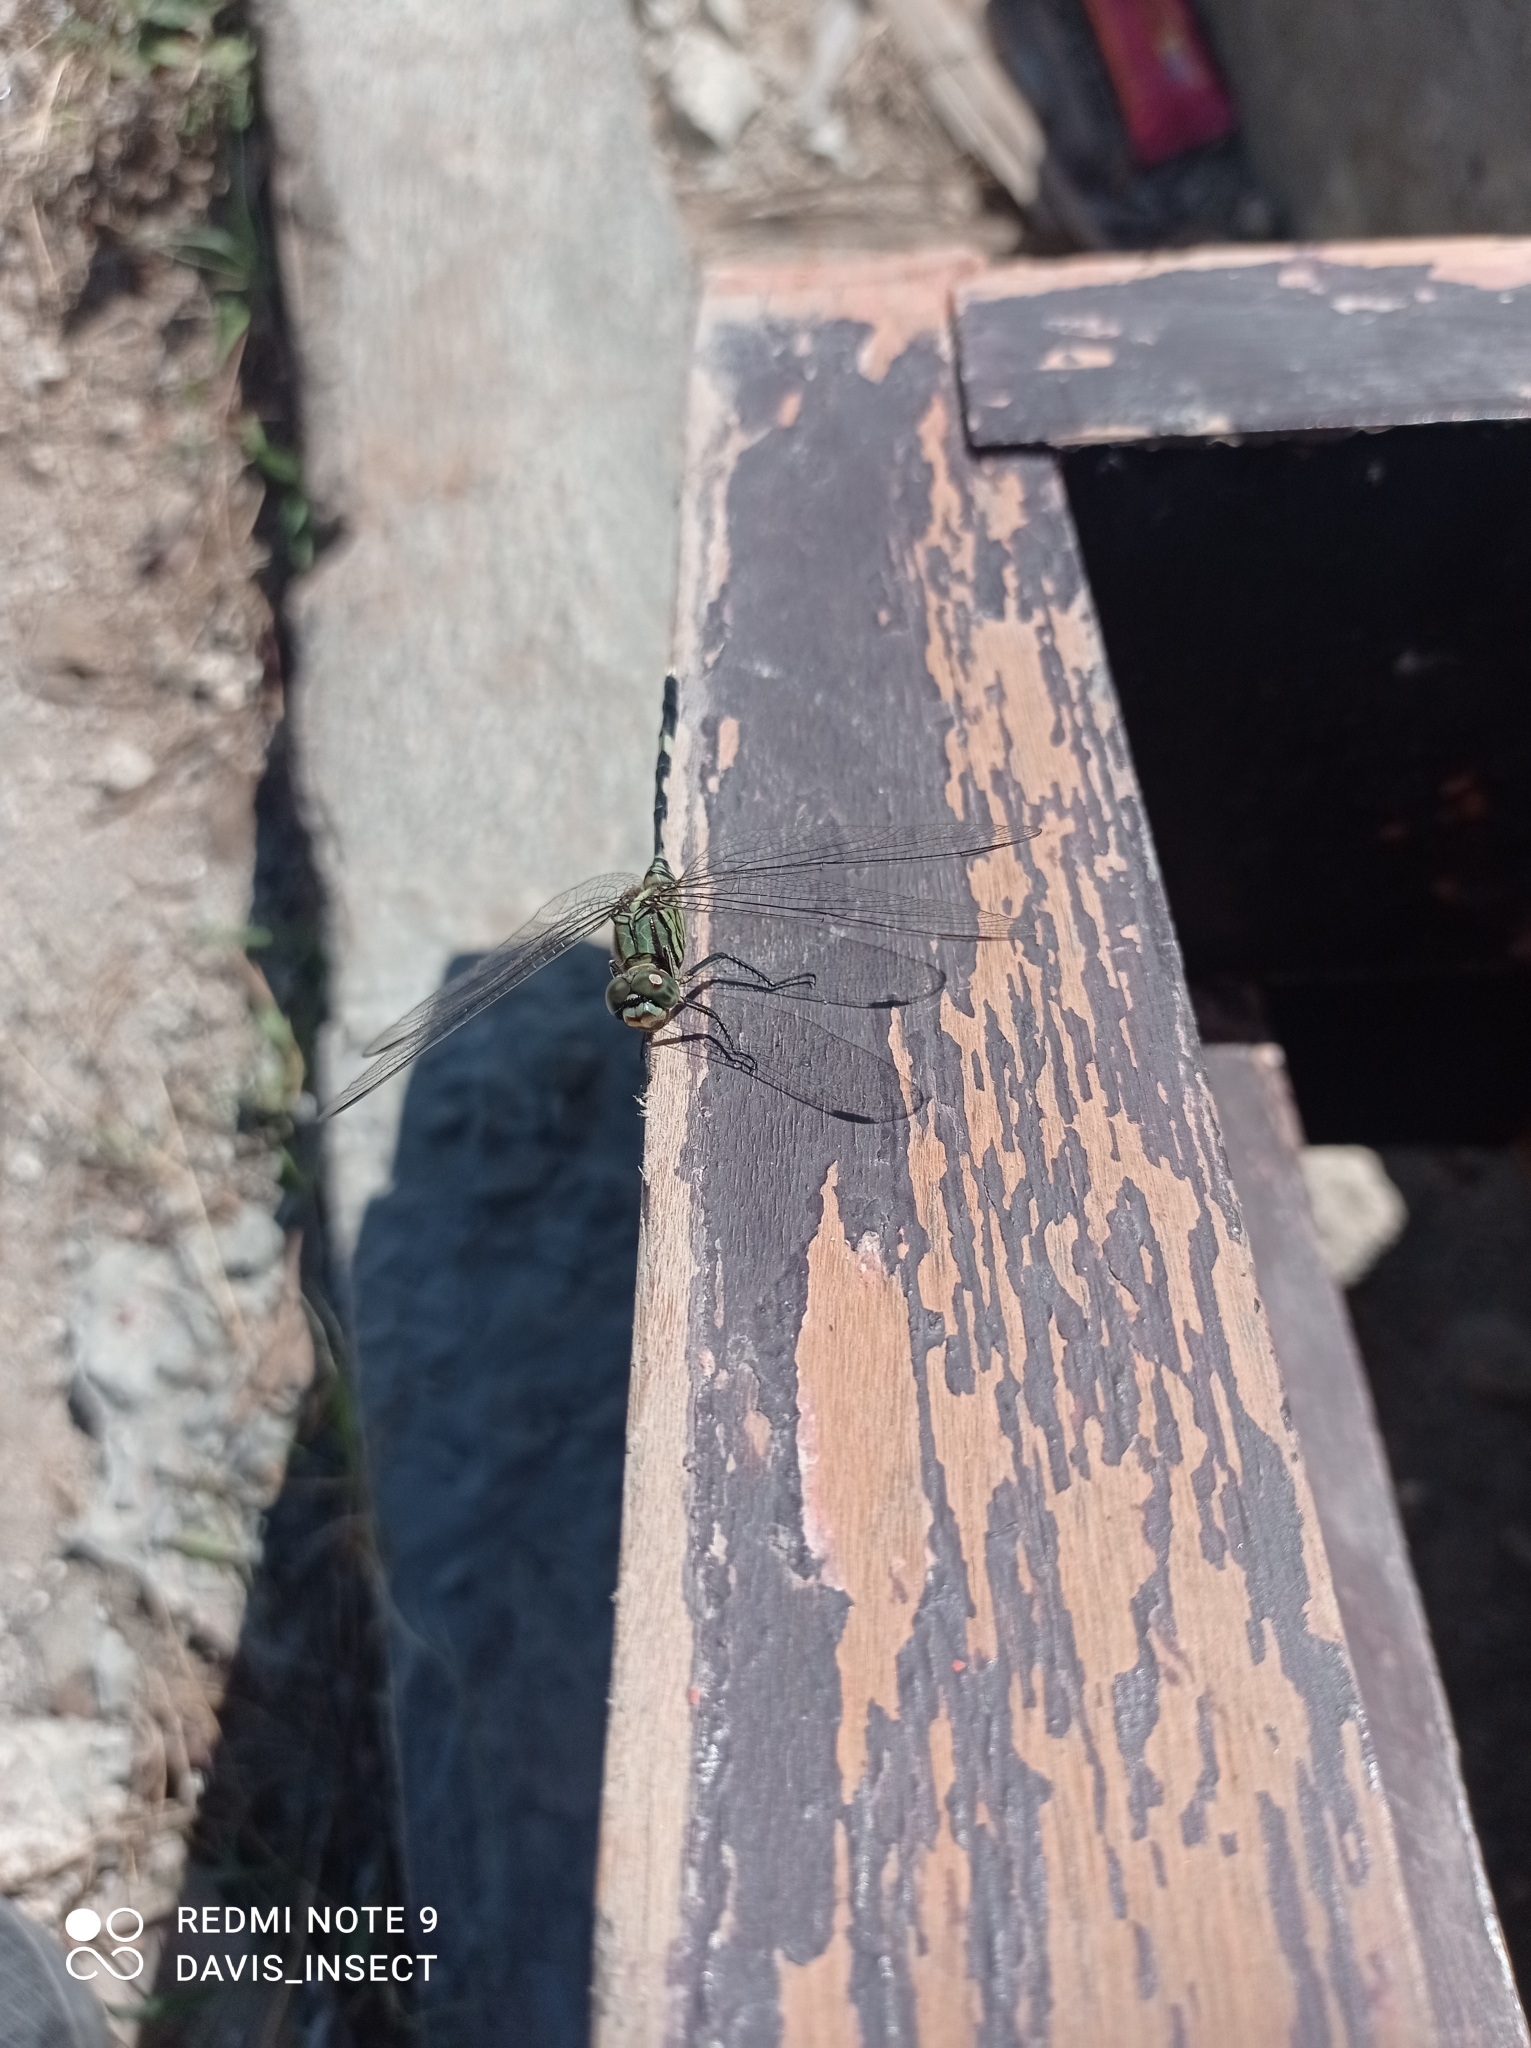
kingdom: Animalia
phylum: Arthropoda
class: Insecta
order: Odonata
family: Libellulidae
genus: Orthetrum
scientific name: Orthetrum sabina
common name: Slender skimmer
